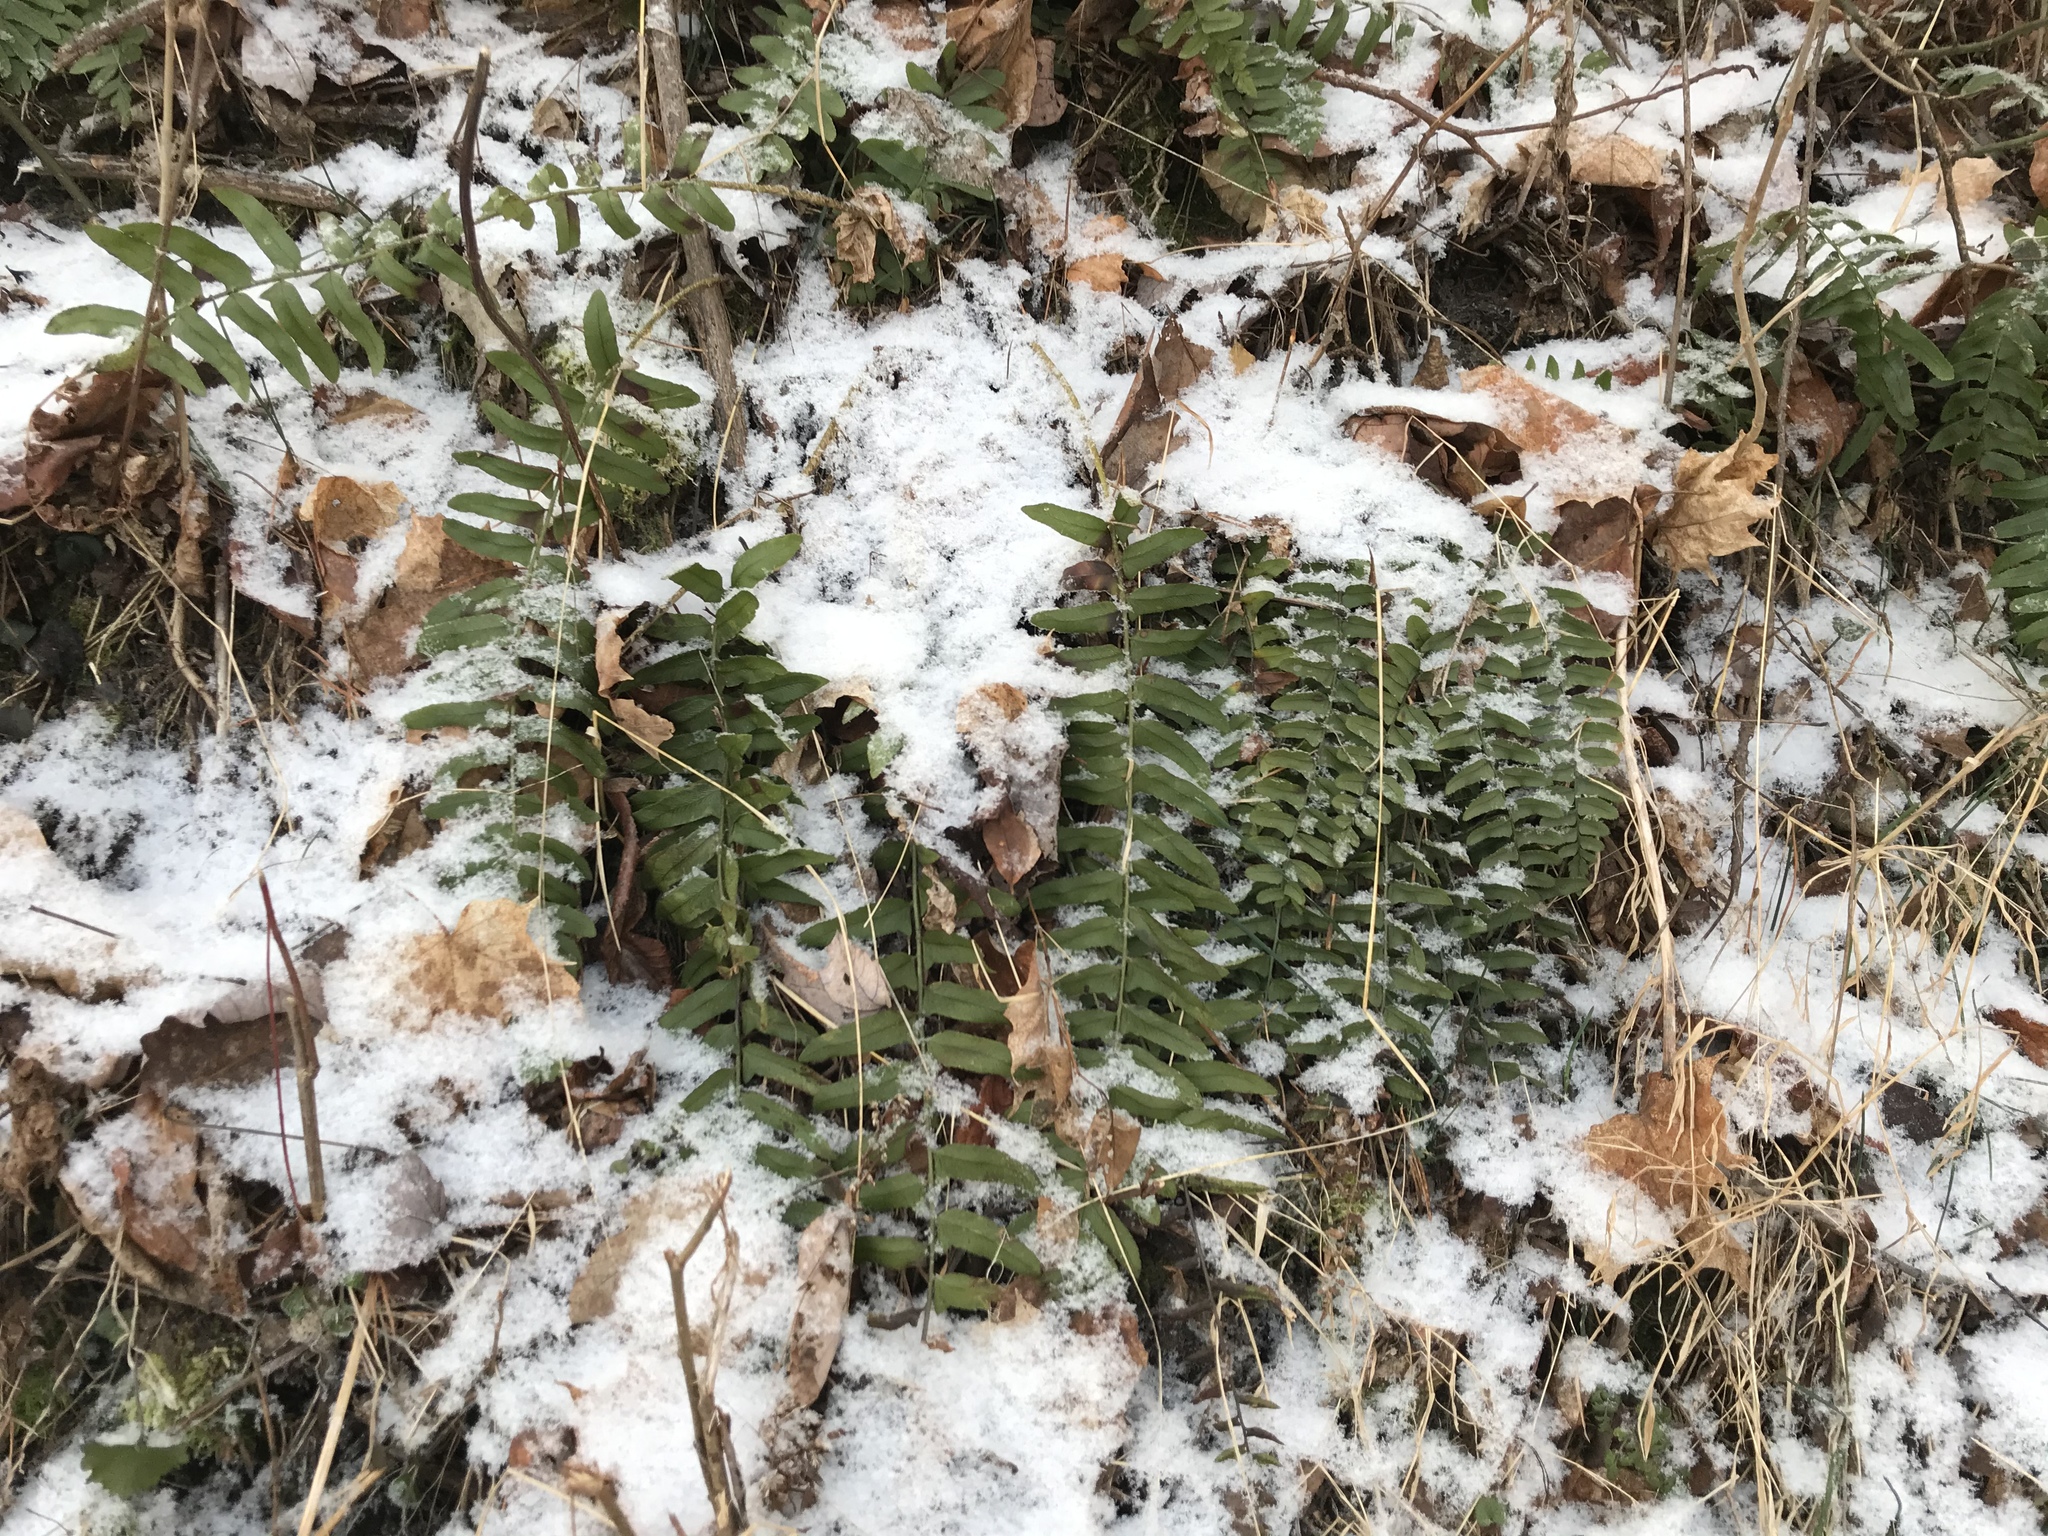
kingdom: Plantae
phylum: Tracheophyta
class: Polypodiopsida
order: Polypodiales
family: Dryopteridaceae
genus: Polystichum
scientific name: Polystichum acrostichoides
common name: Christmas fern
